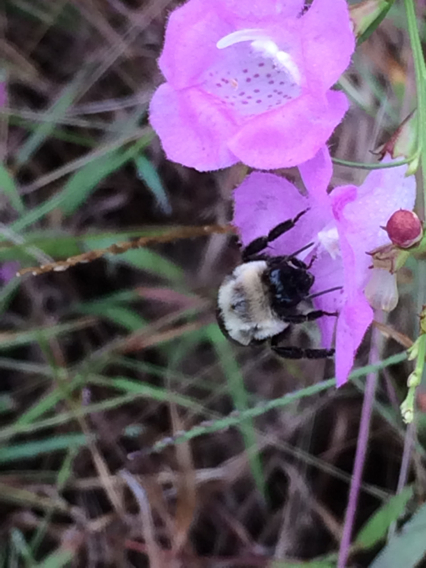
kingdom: Animalia
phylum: Arthropoda
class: Insecta
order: Hymenoptera
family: Apidae
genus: Bombus
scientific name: Bombus impatiens
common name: Common eastern bumble bee
